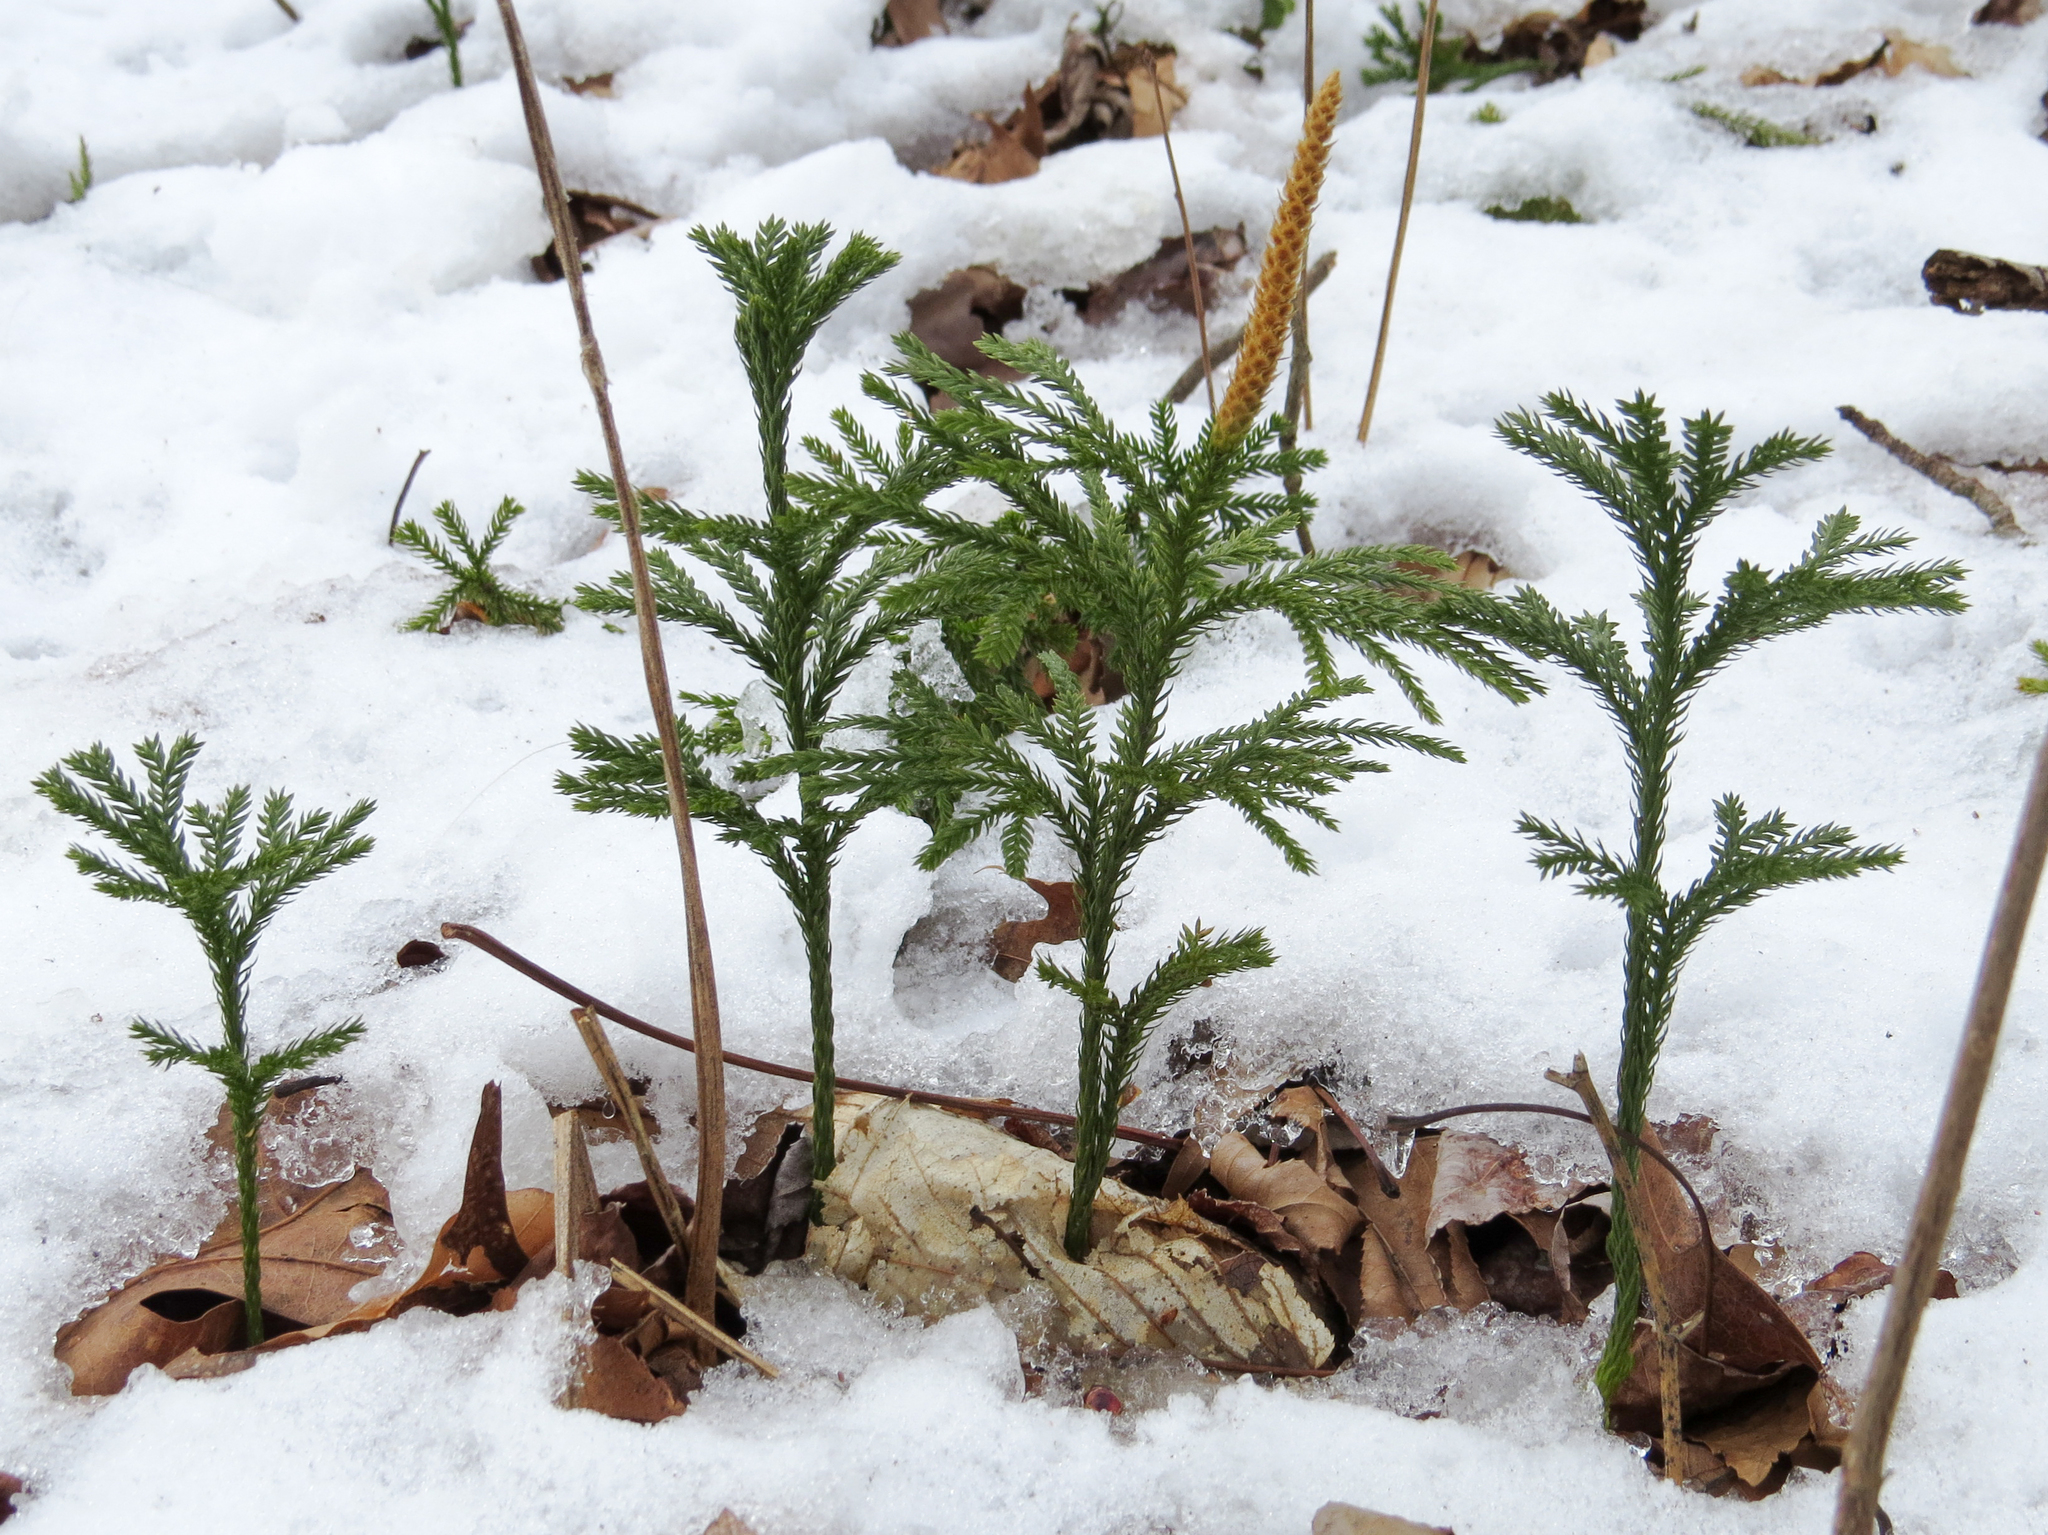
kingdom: Plantae
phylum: Tracheophyta
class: Lycopodiopsida
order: Lycopodiales
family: Lycopodiaceae
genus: Dendrolycopodium
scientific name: Dendrolycopodium obscurum
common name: Common ground-pine
